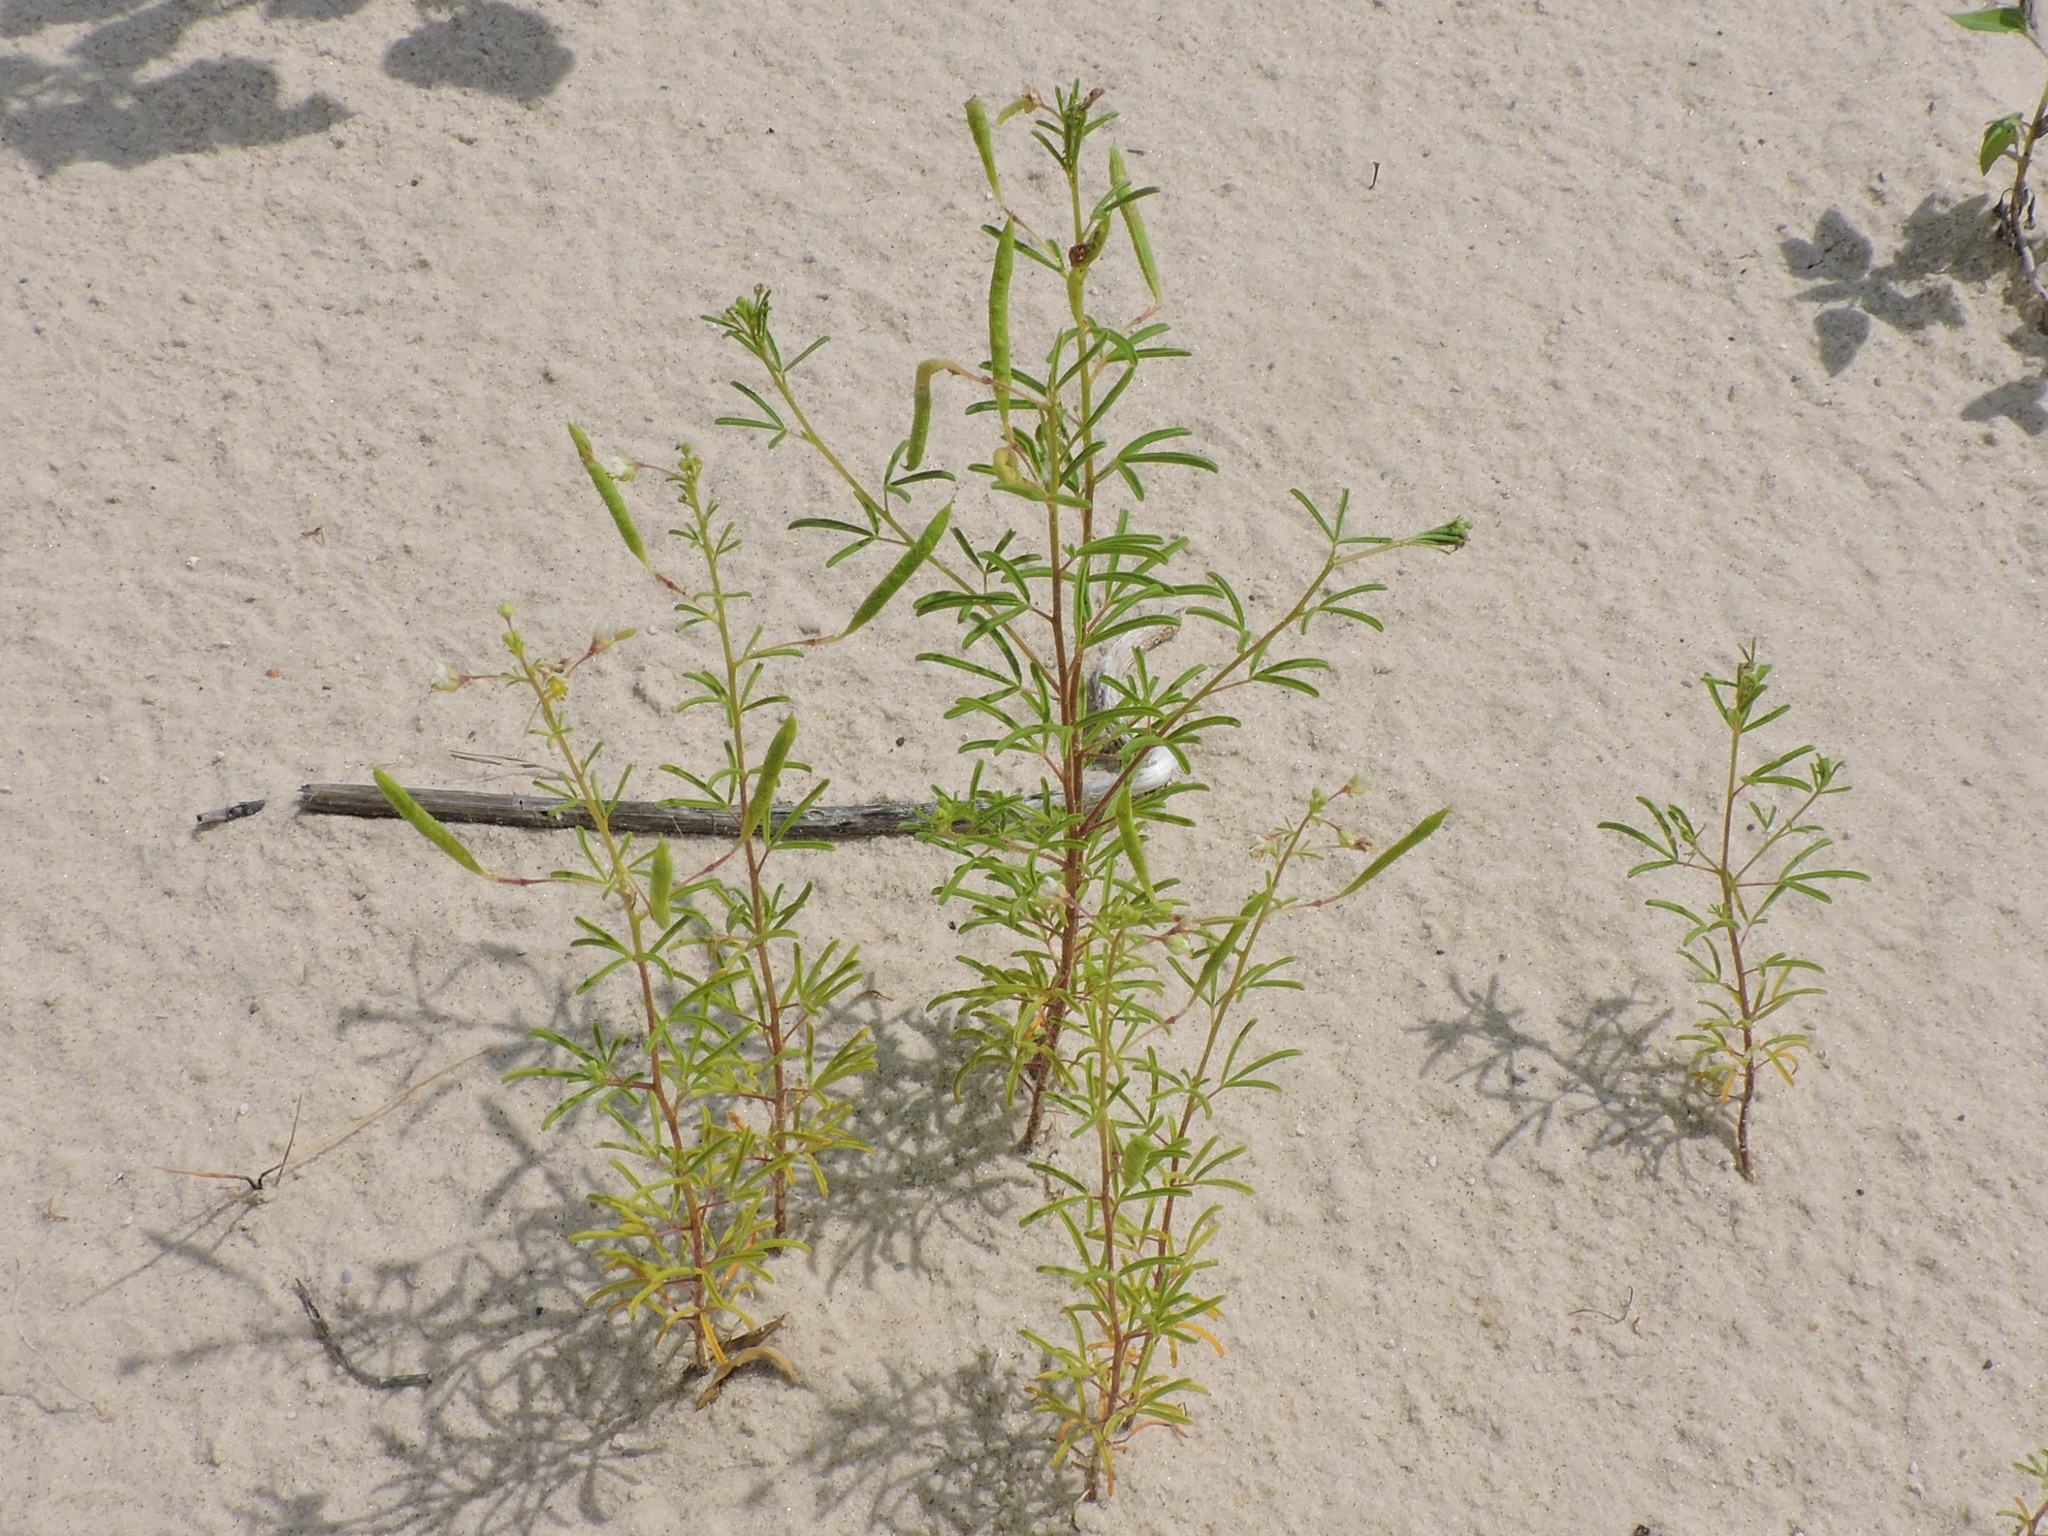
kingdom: Plantae
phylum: Tracheophyta
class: Magnoliopsida
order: Brassicales
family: Cleomaceae
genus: Polanisia
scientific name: Polanisia jamesii
